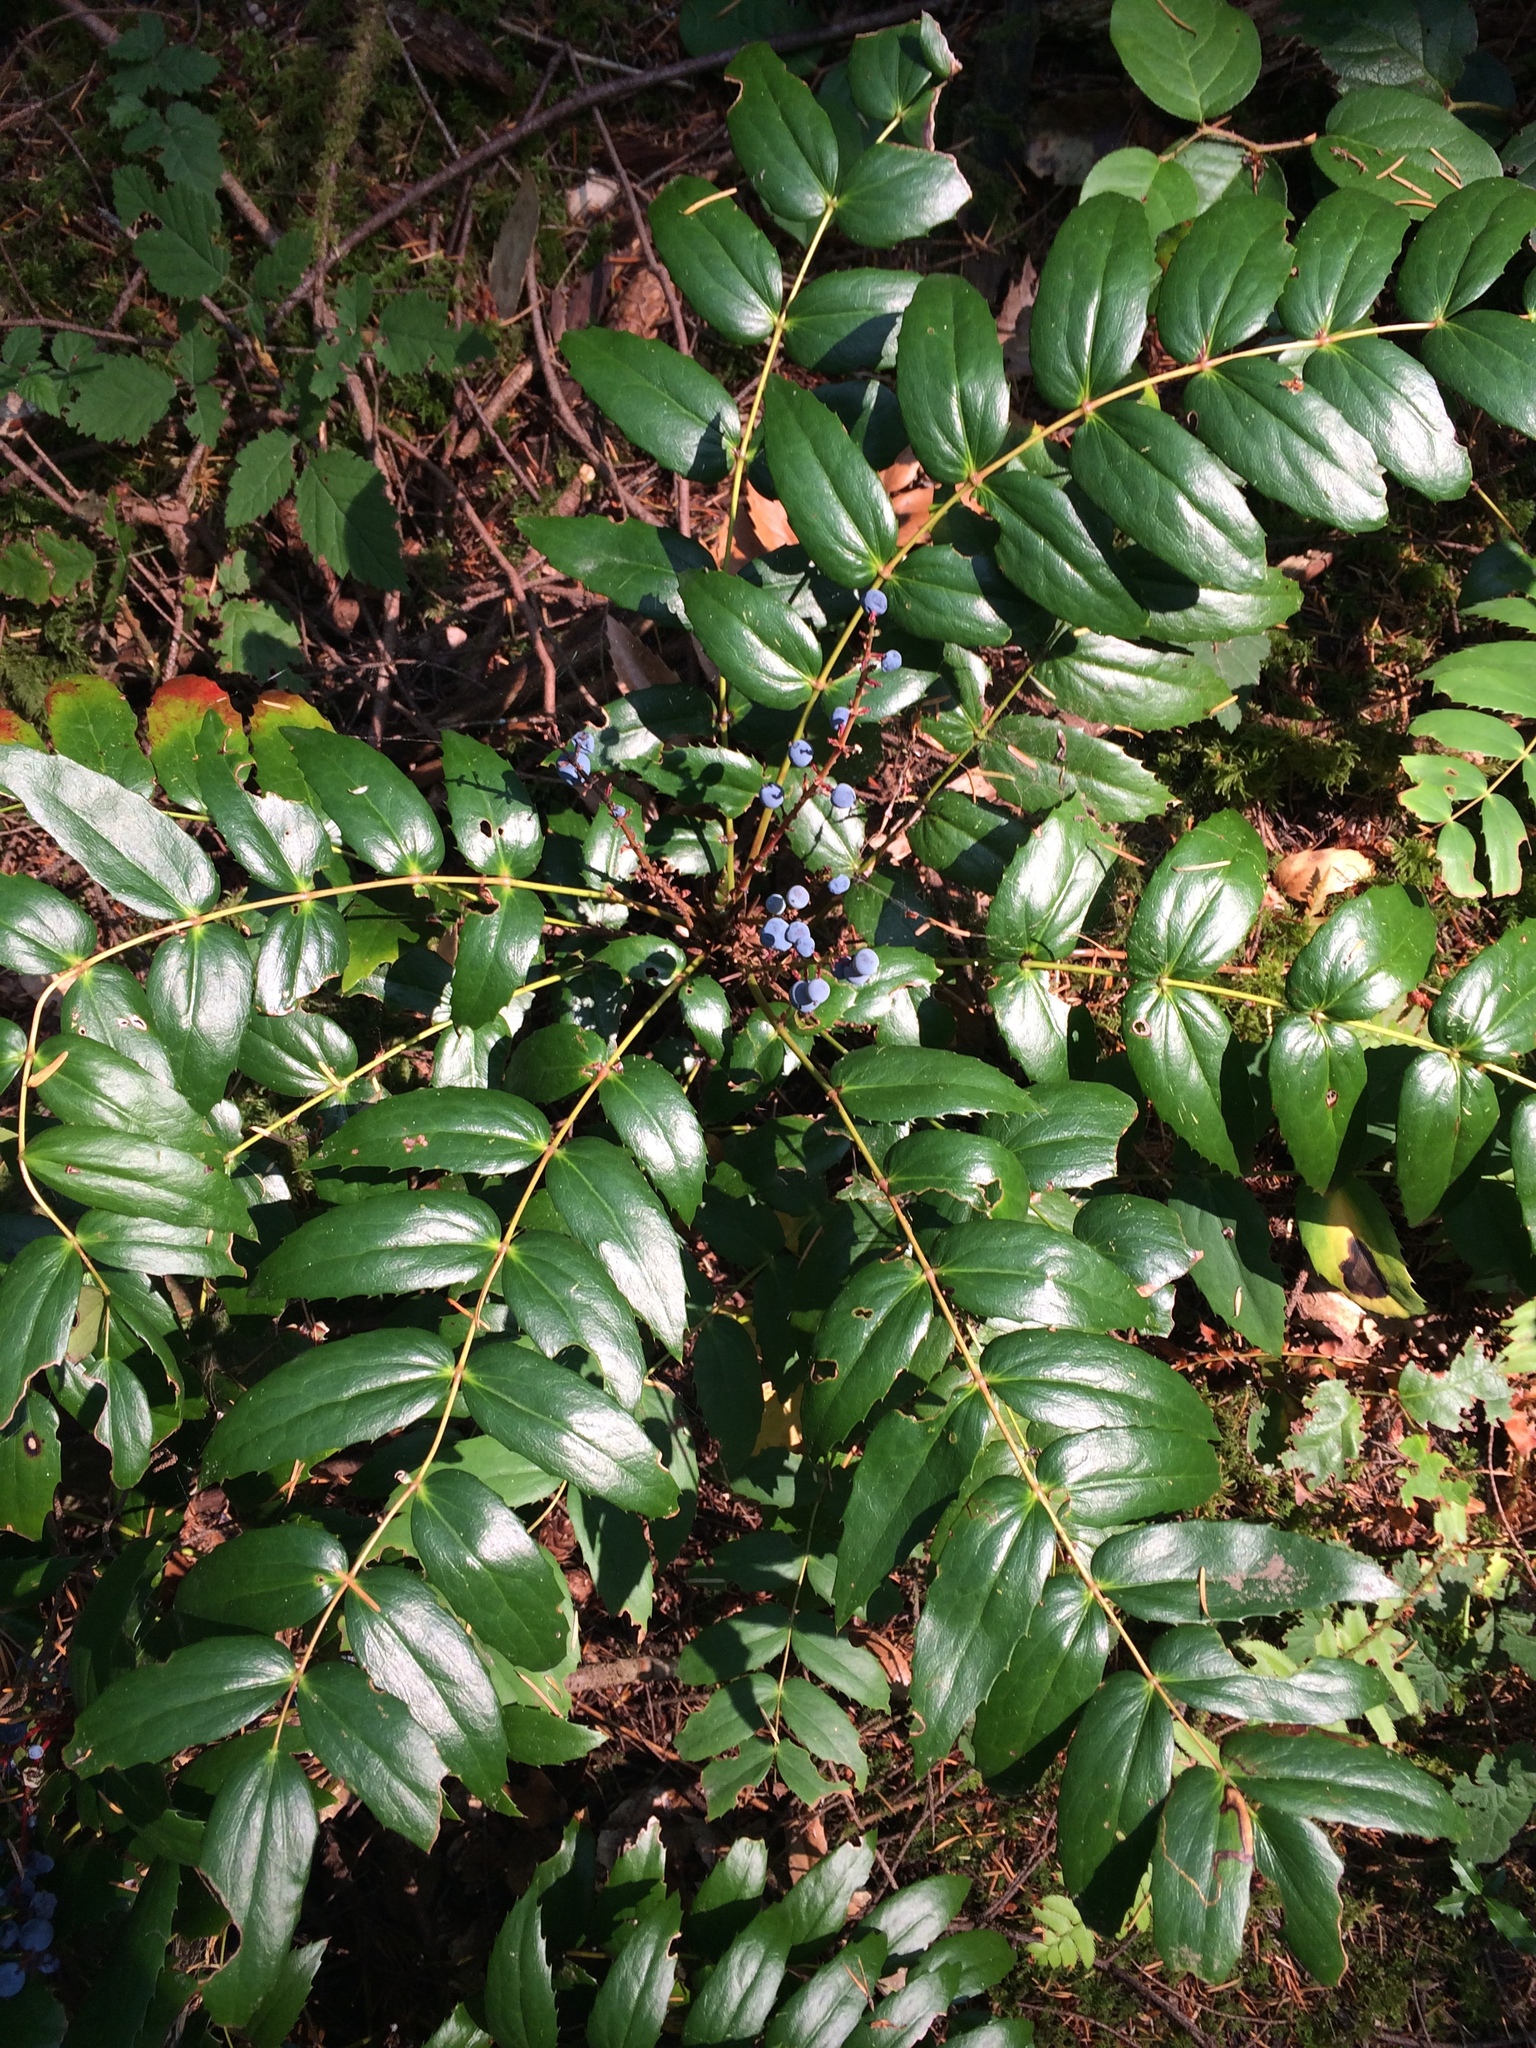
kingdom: Plantae
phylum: Tracheophyta
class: Magnoliopsida
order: Ranunculales
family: Berberidaceae
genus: Mahonia
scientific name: Mahonia nervosa
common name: Cascade oregon-grape
